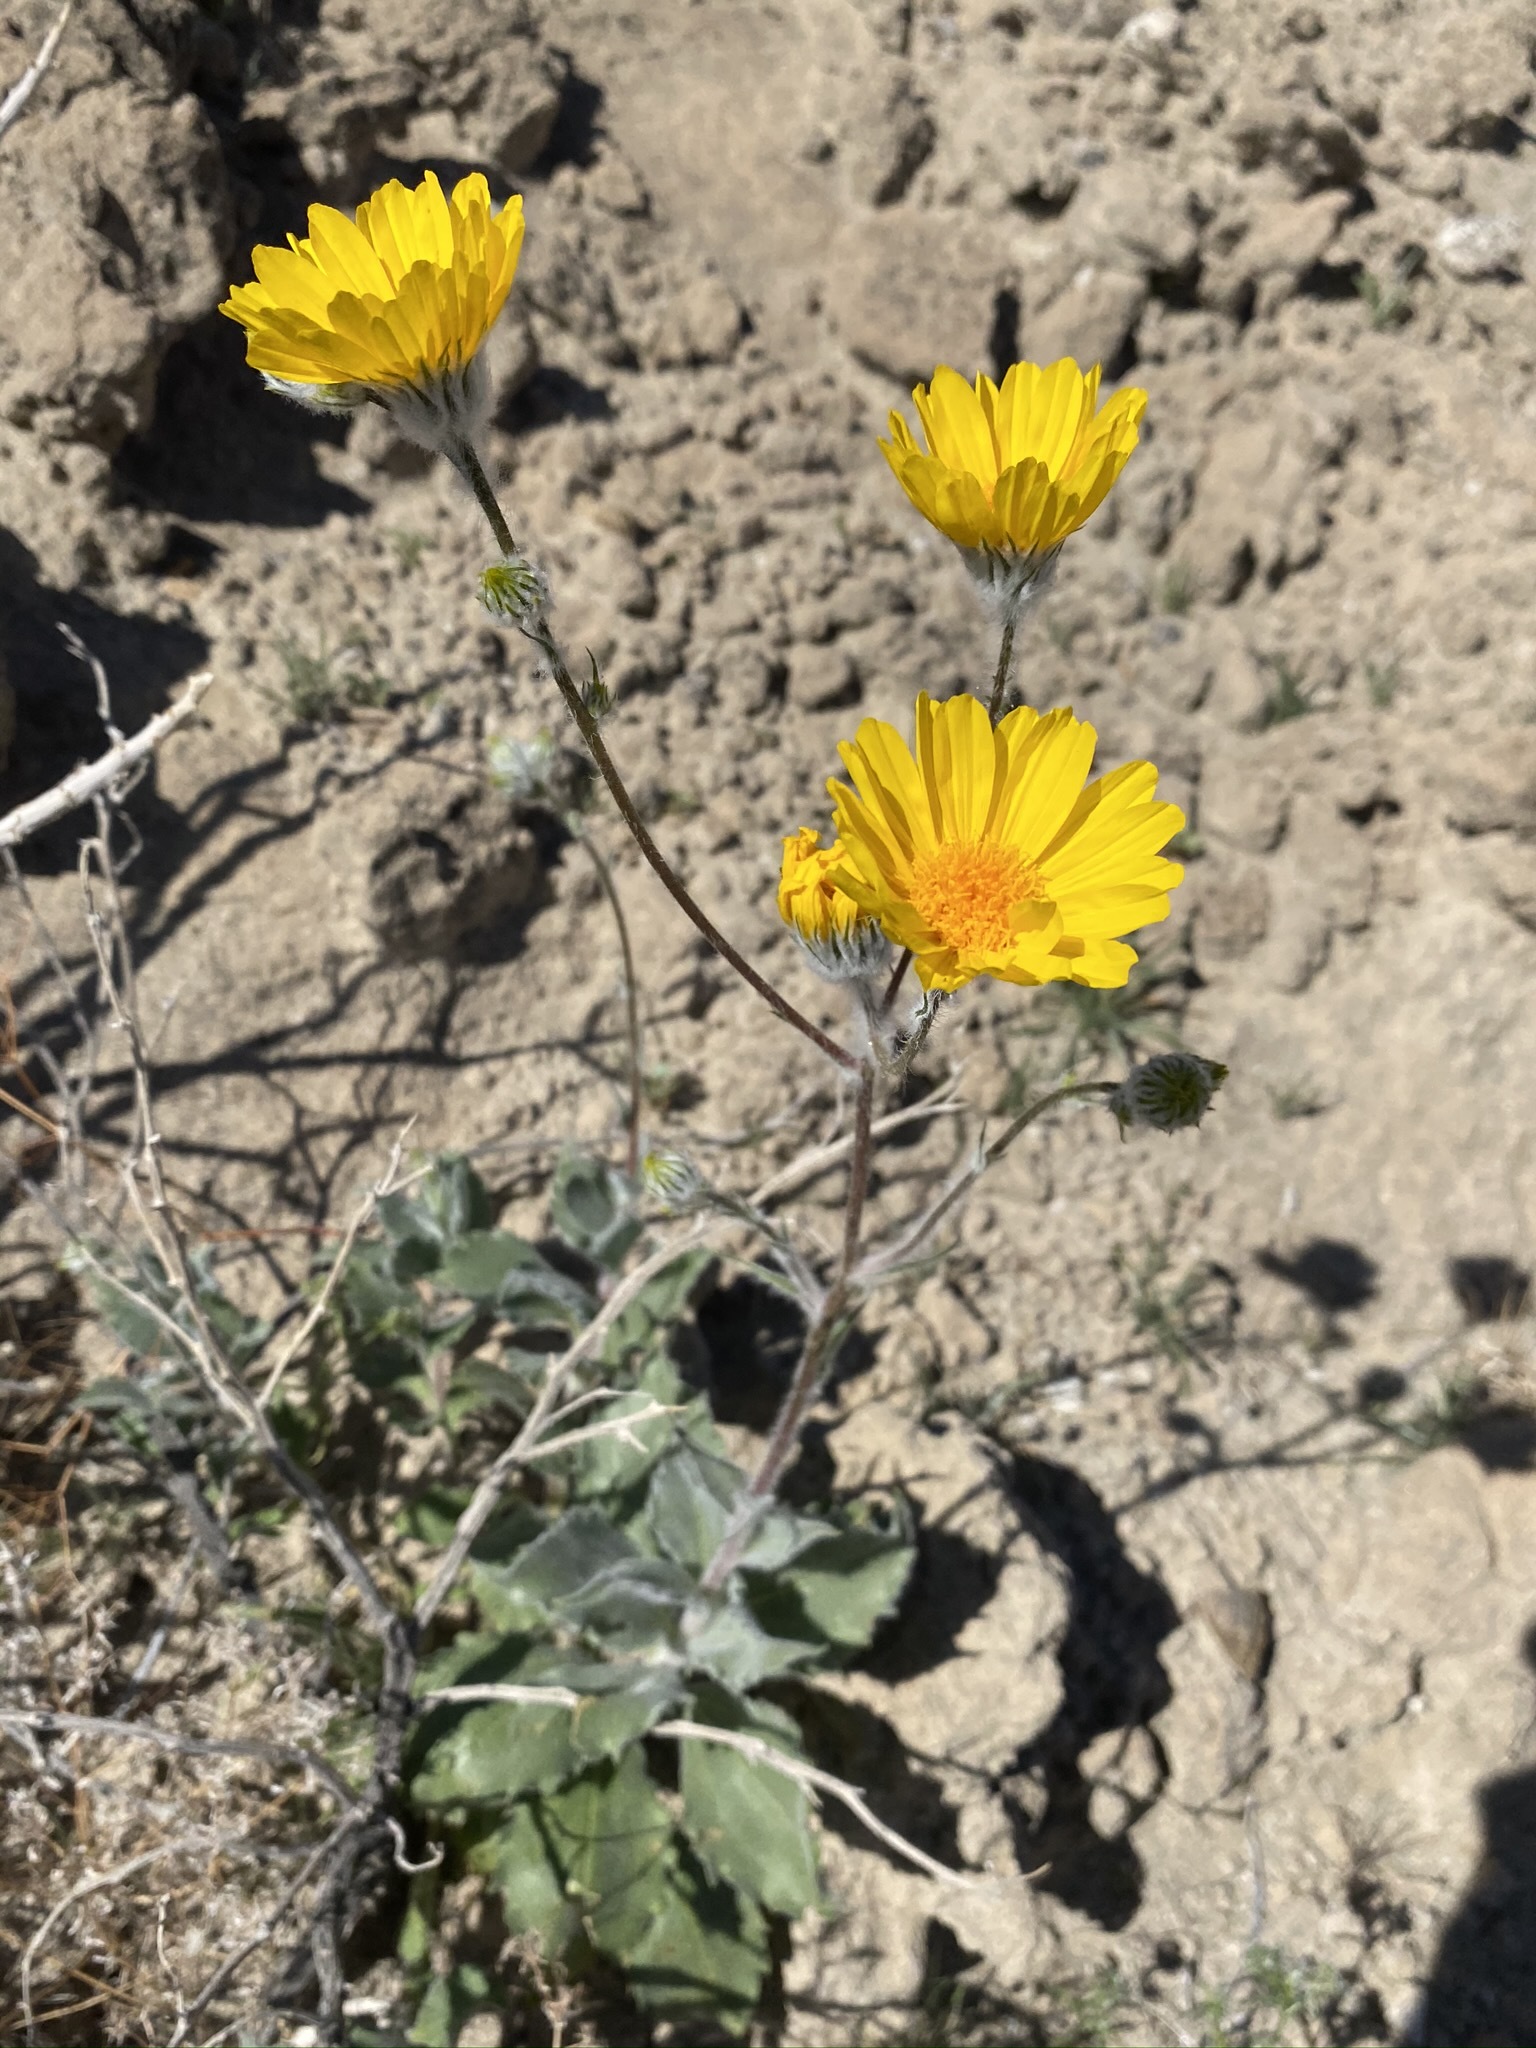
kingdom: Plantae
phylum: Tracheophyta
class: Magnoliopsida
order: Asterales
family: Asteraceae
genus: Geraea
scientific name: Geraea canescens
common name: Desert-gold
